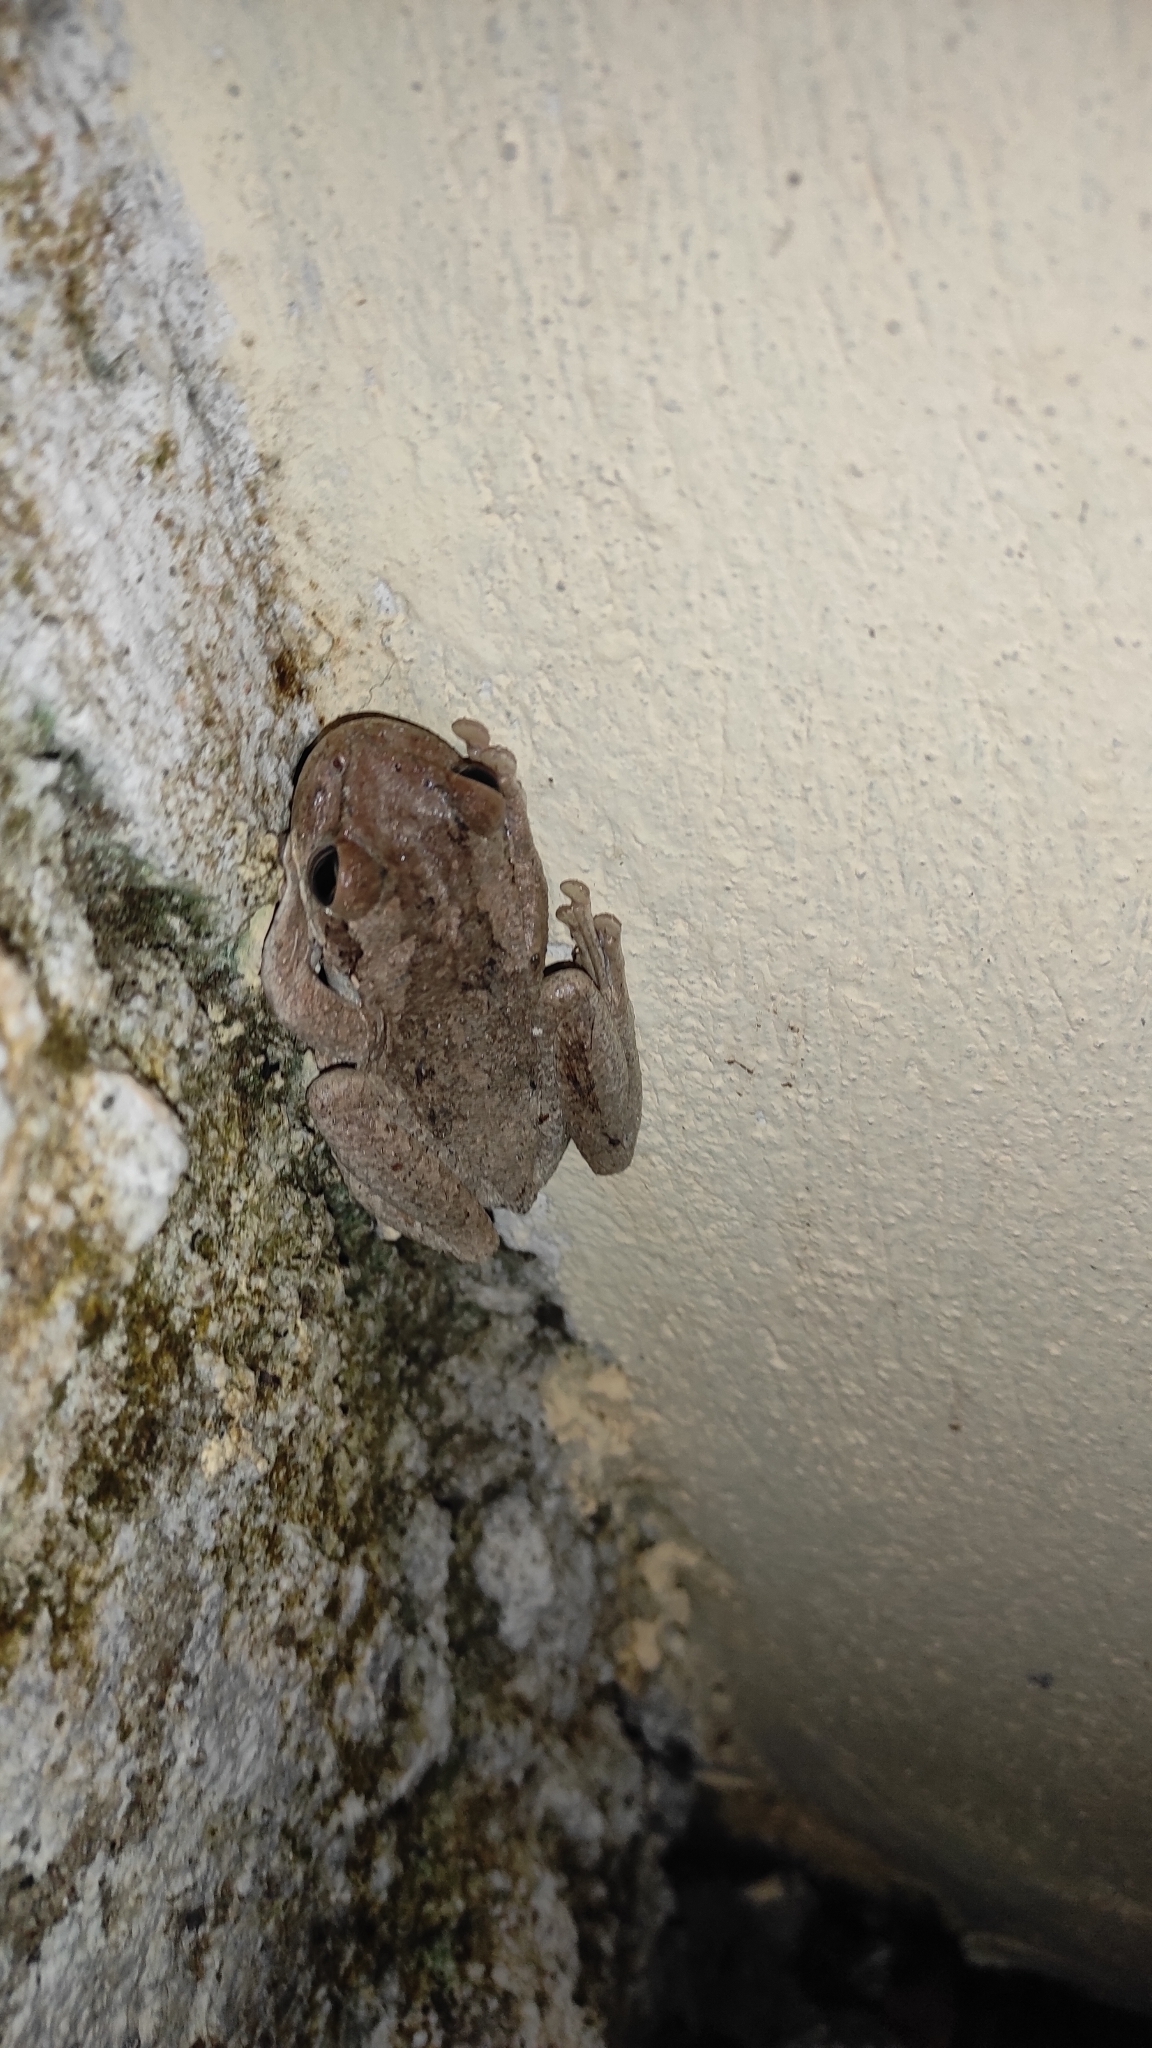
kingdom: Animalia
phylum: Chordata
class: Amphibia
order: Anura
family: Hylidae
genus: Osteopilus
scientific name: Osteopilus dominicensis
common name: Hispaniolan common treefrog
